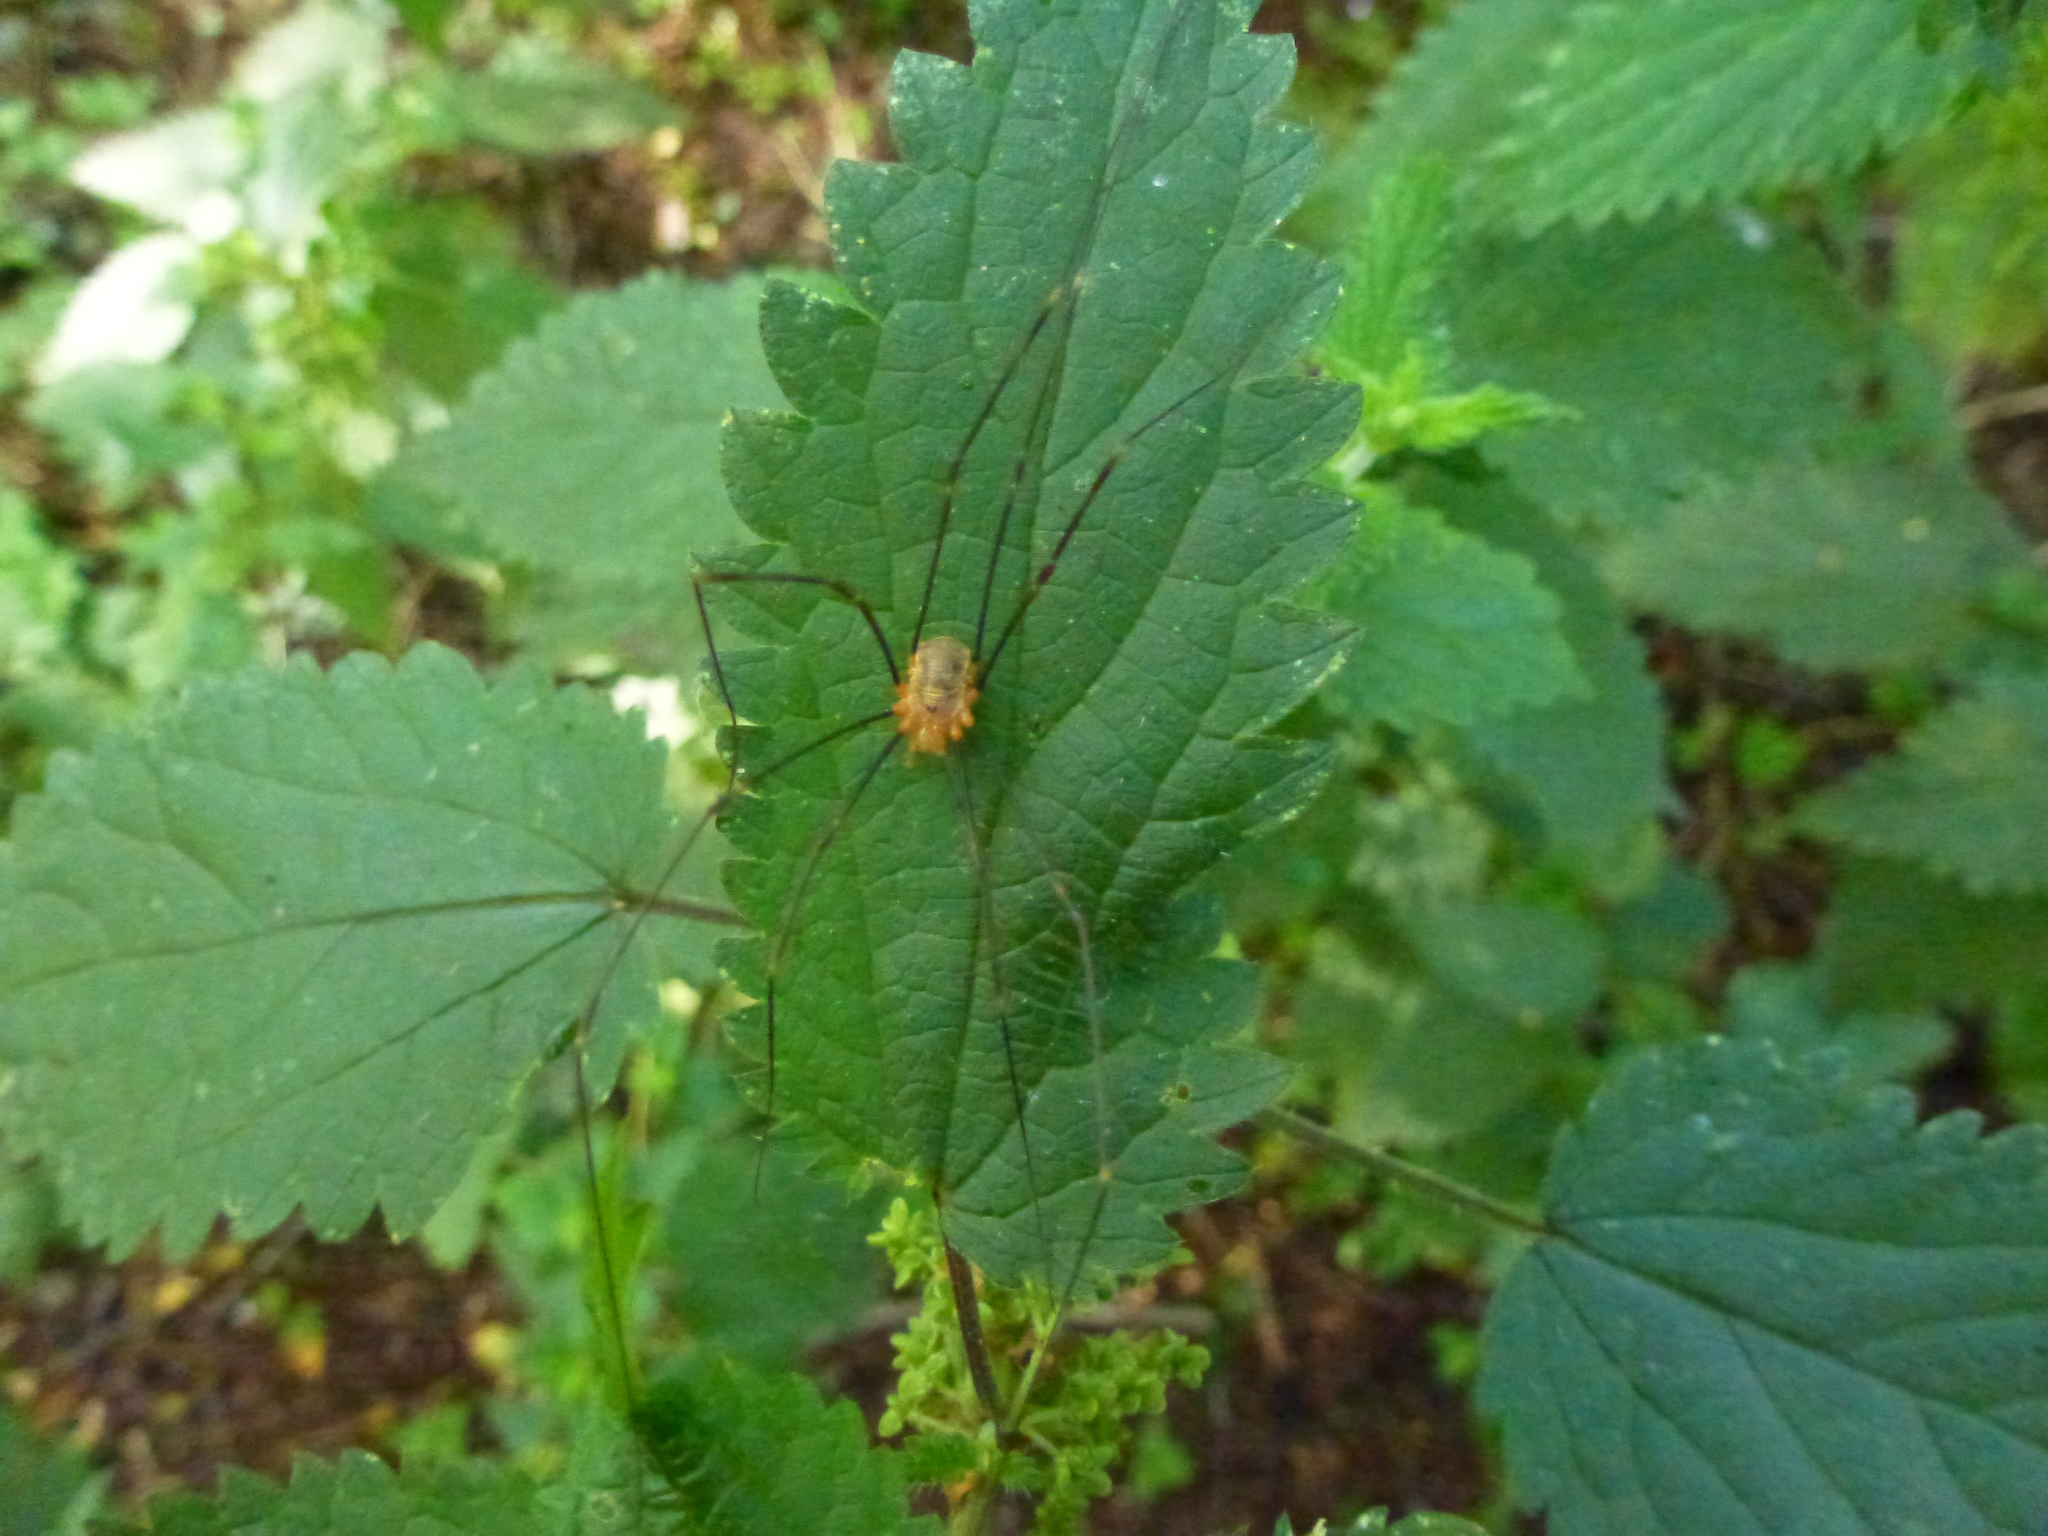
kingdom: Animalia
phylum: Arthropoda
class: Arachnida
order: Opiliones
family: Phalangiidae
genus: Opilio
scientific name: Opilio canestrinii
